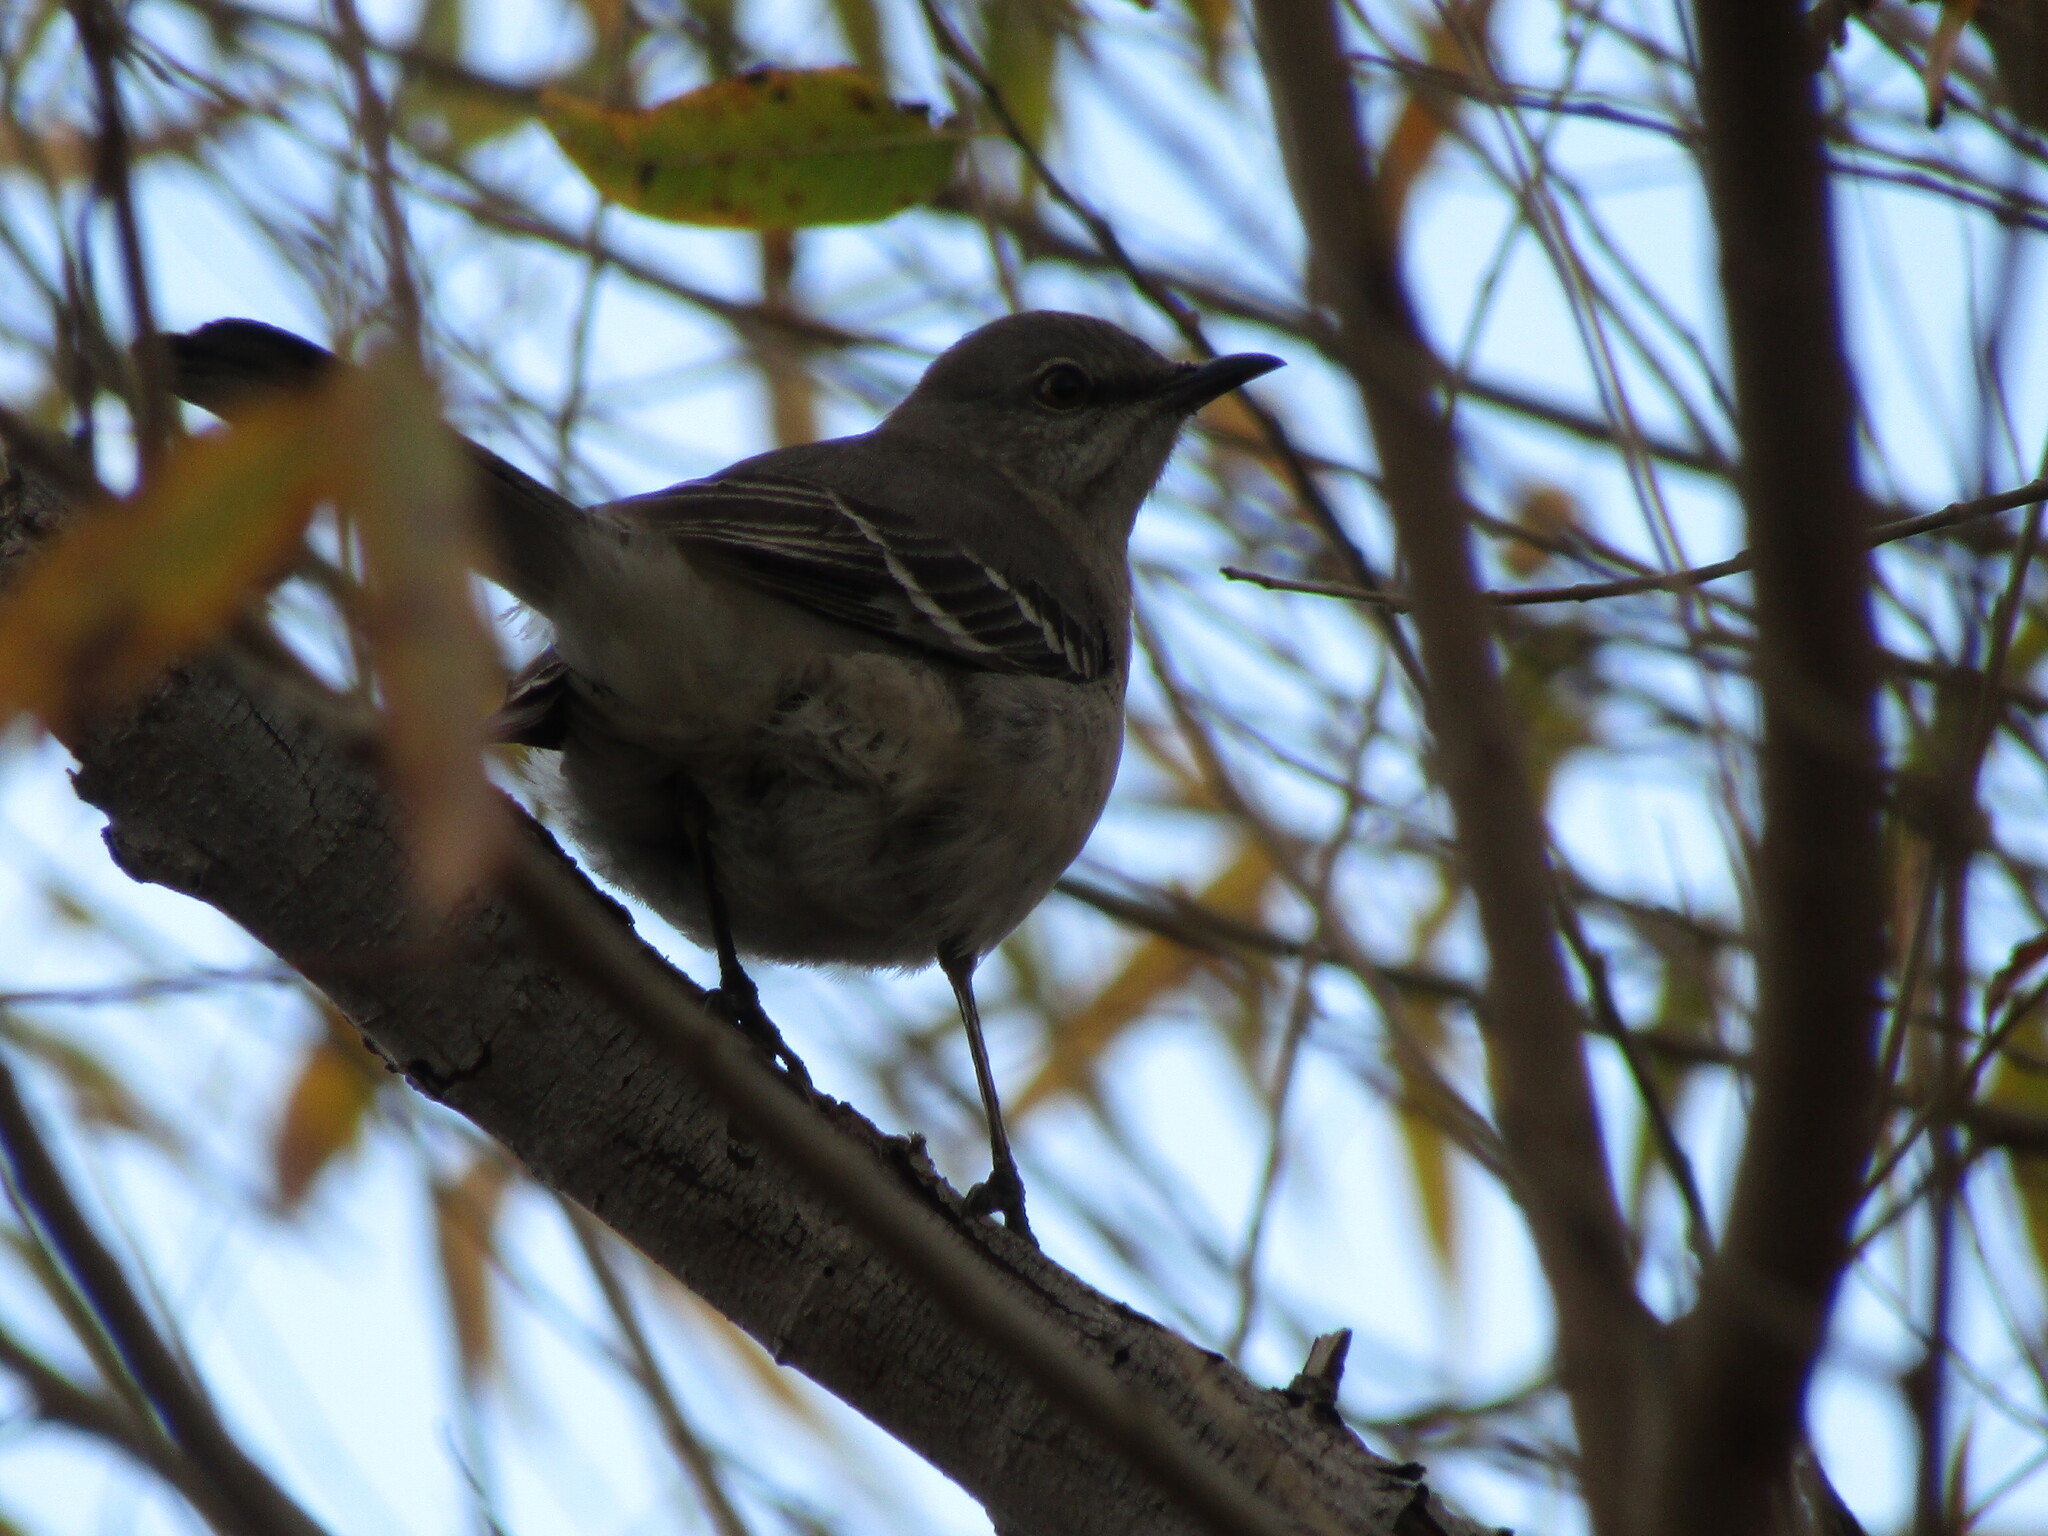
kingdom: Animalia
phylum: Chordata
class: Aves
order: Passeriformes
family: Mimidae
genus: Mimus
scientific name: Mimus polyglottos
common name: Northern mockingbird
